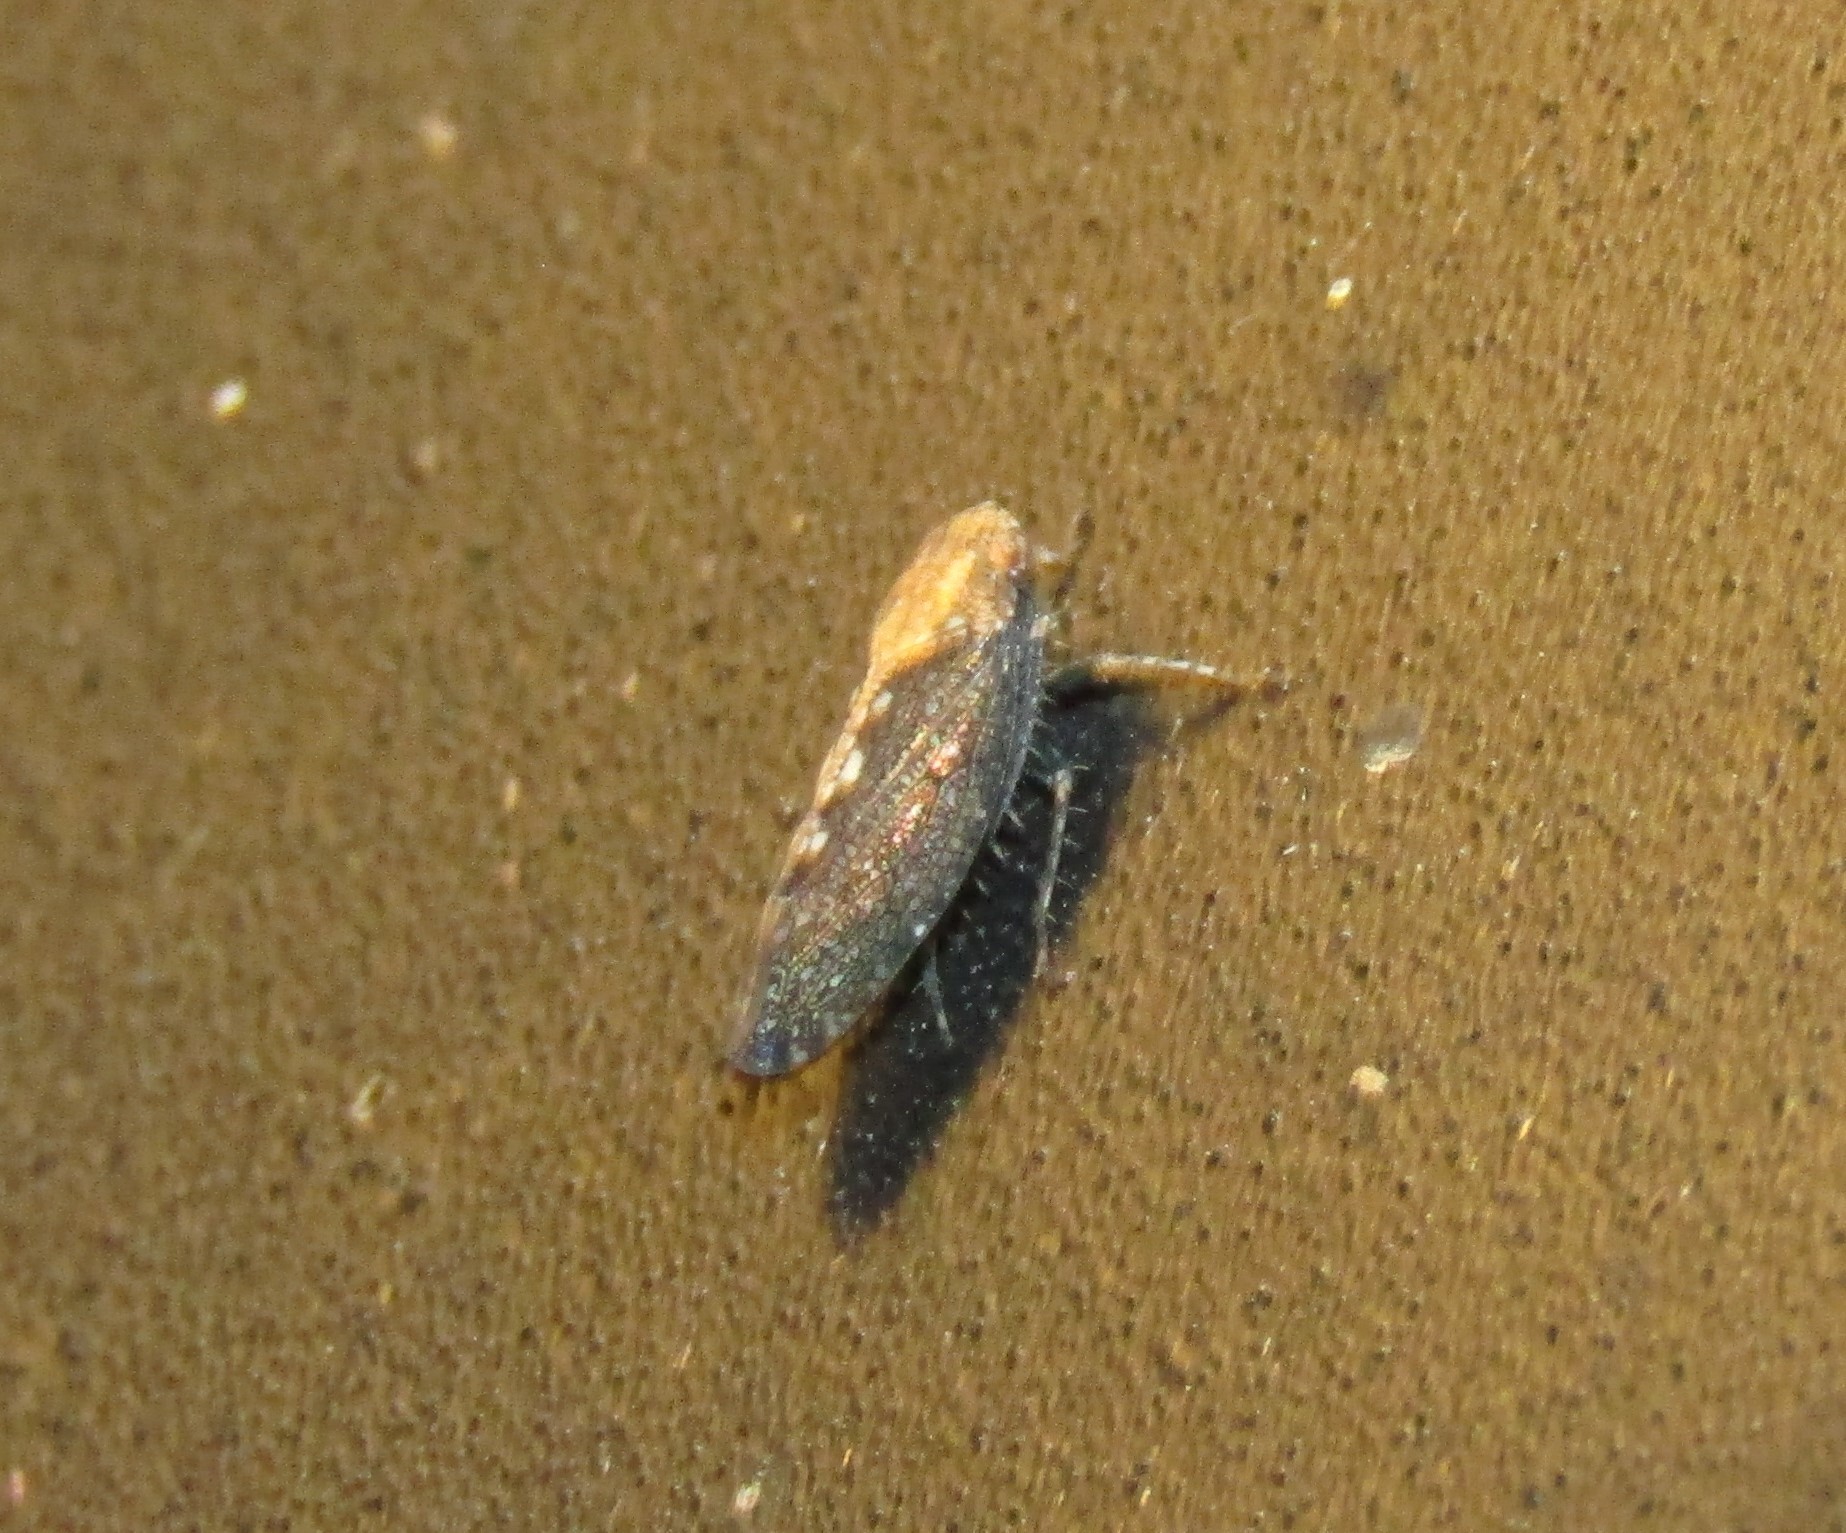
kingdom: Animalia
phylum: Arthropoda
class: Insecta
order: Hemiptera
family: Cicadellidae
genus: Excultanus
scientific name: Excultanus excultus
